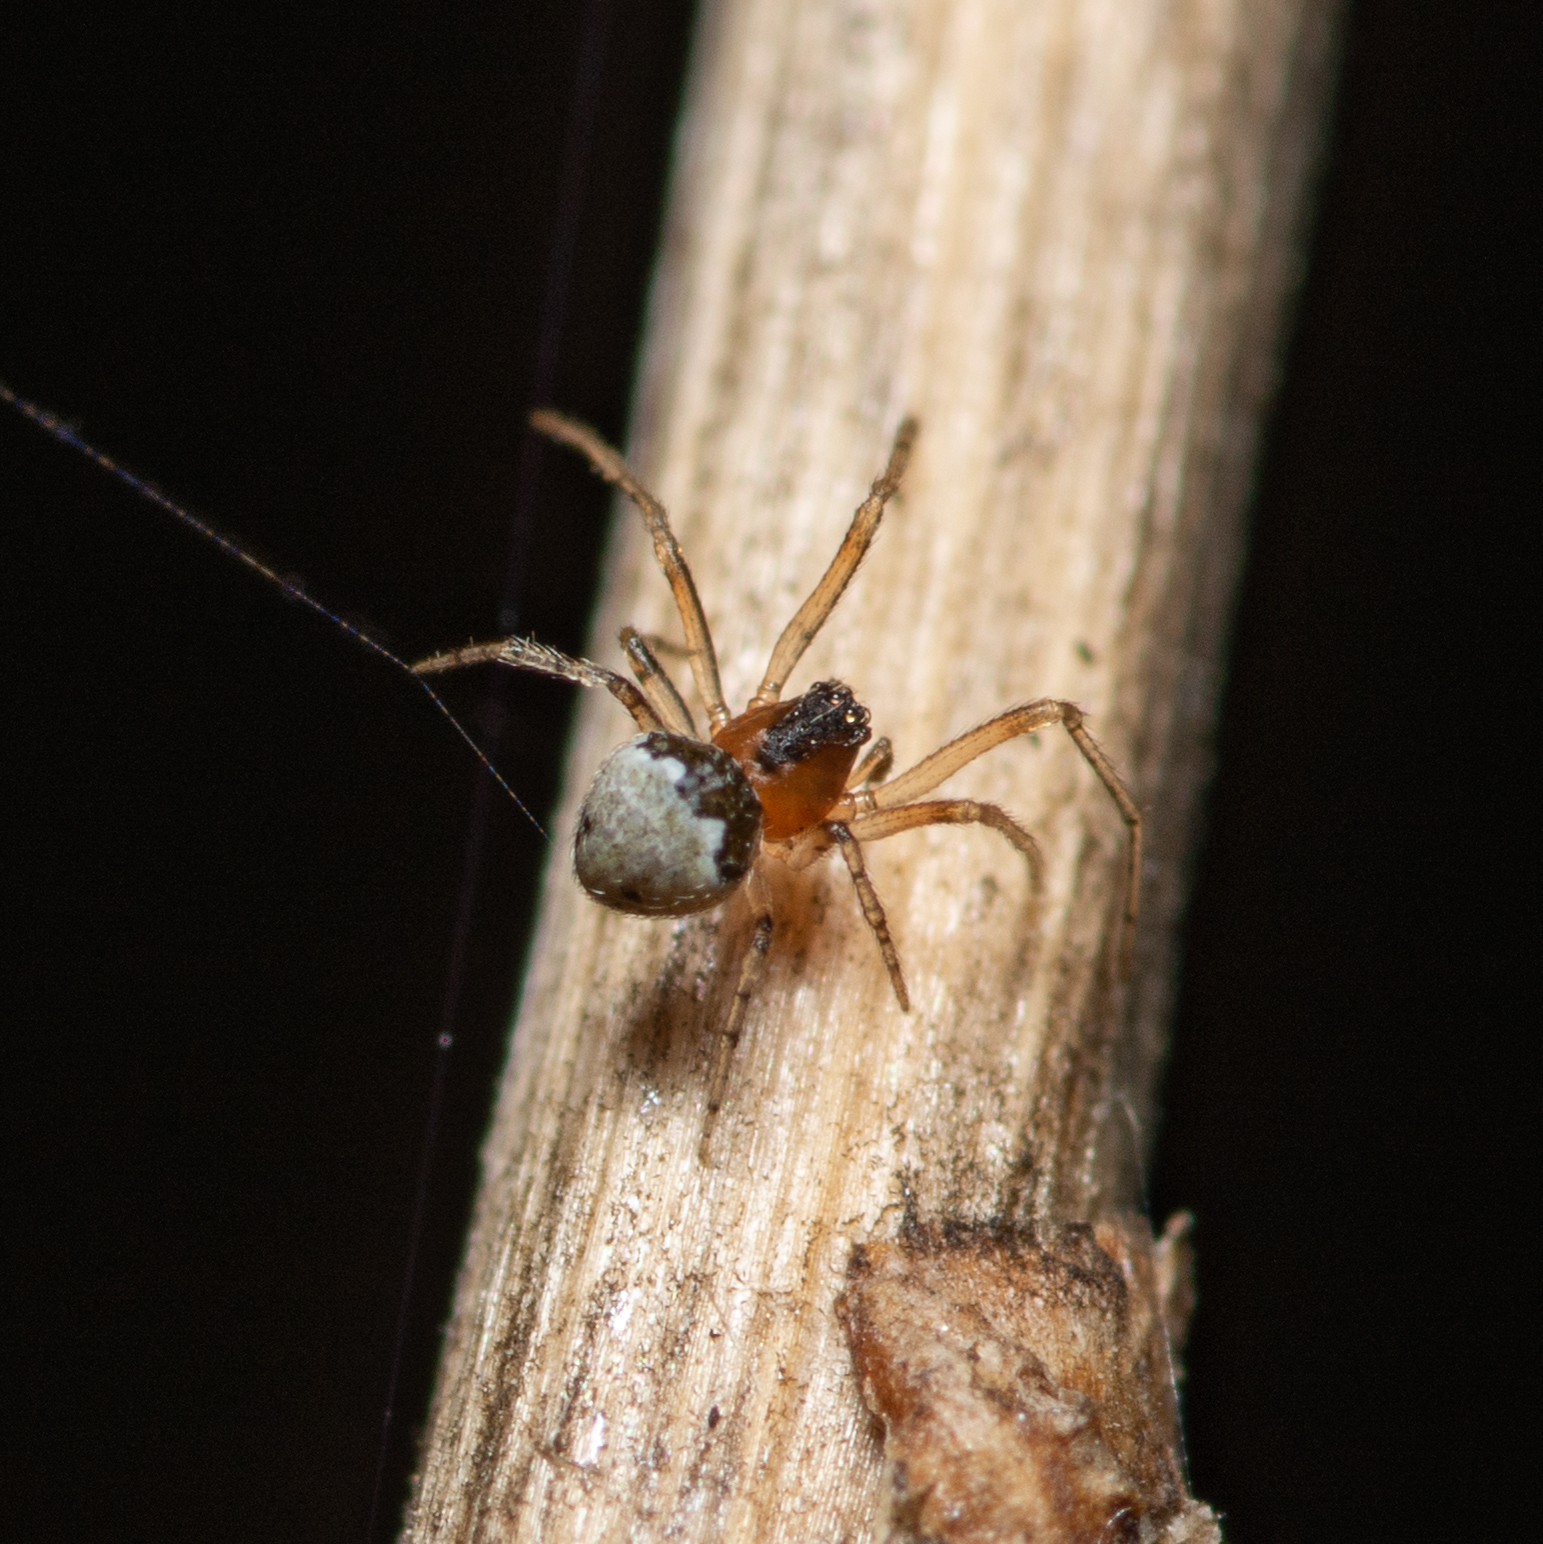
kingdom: Animalia
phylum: Arthropoda
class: Arachnida
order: Araneae
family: Theridiidae
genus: Wamba
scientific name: Wamba crispulus
